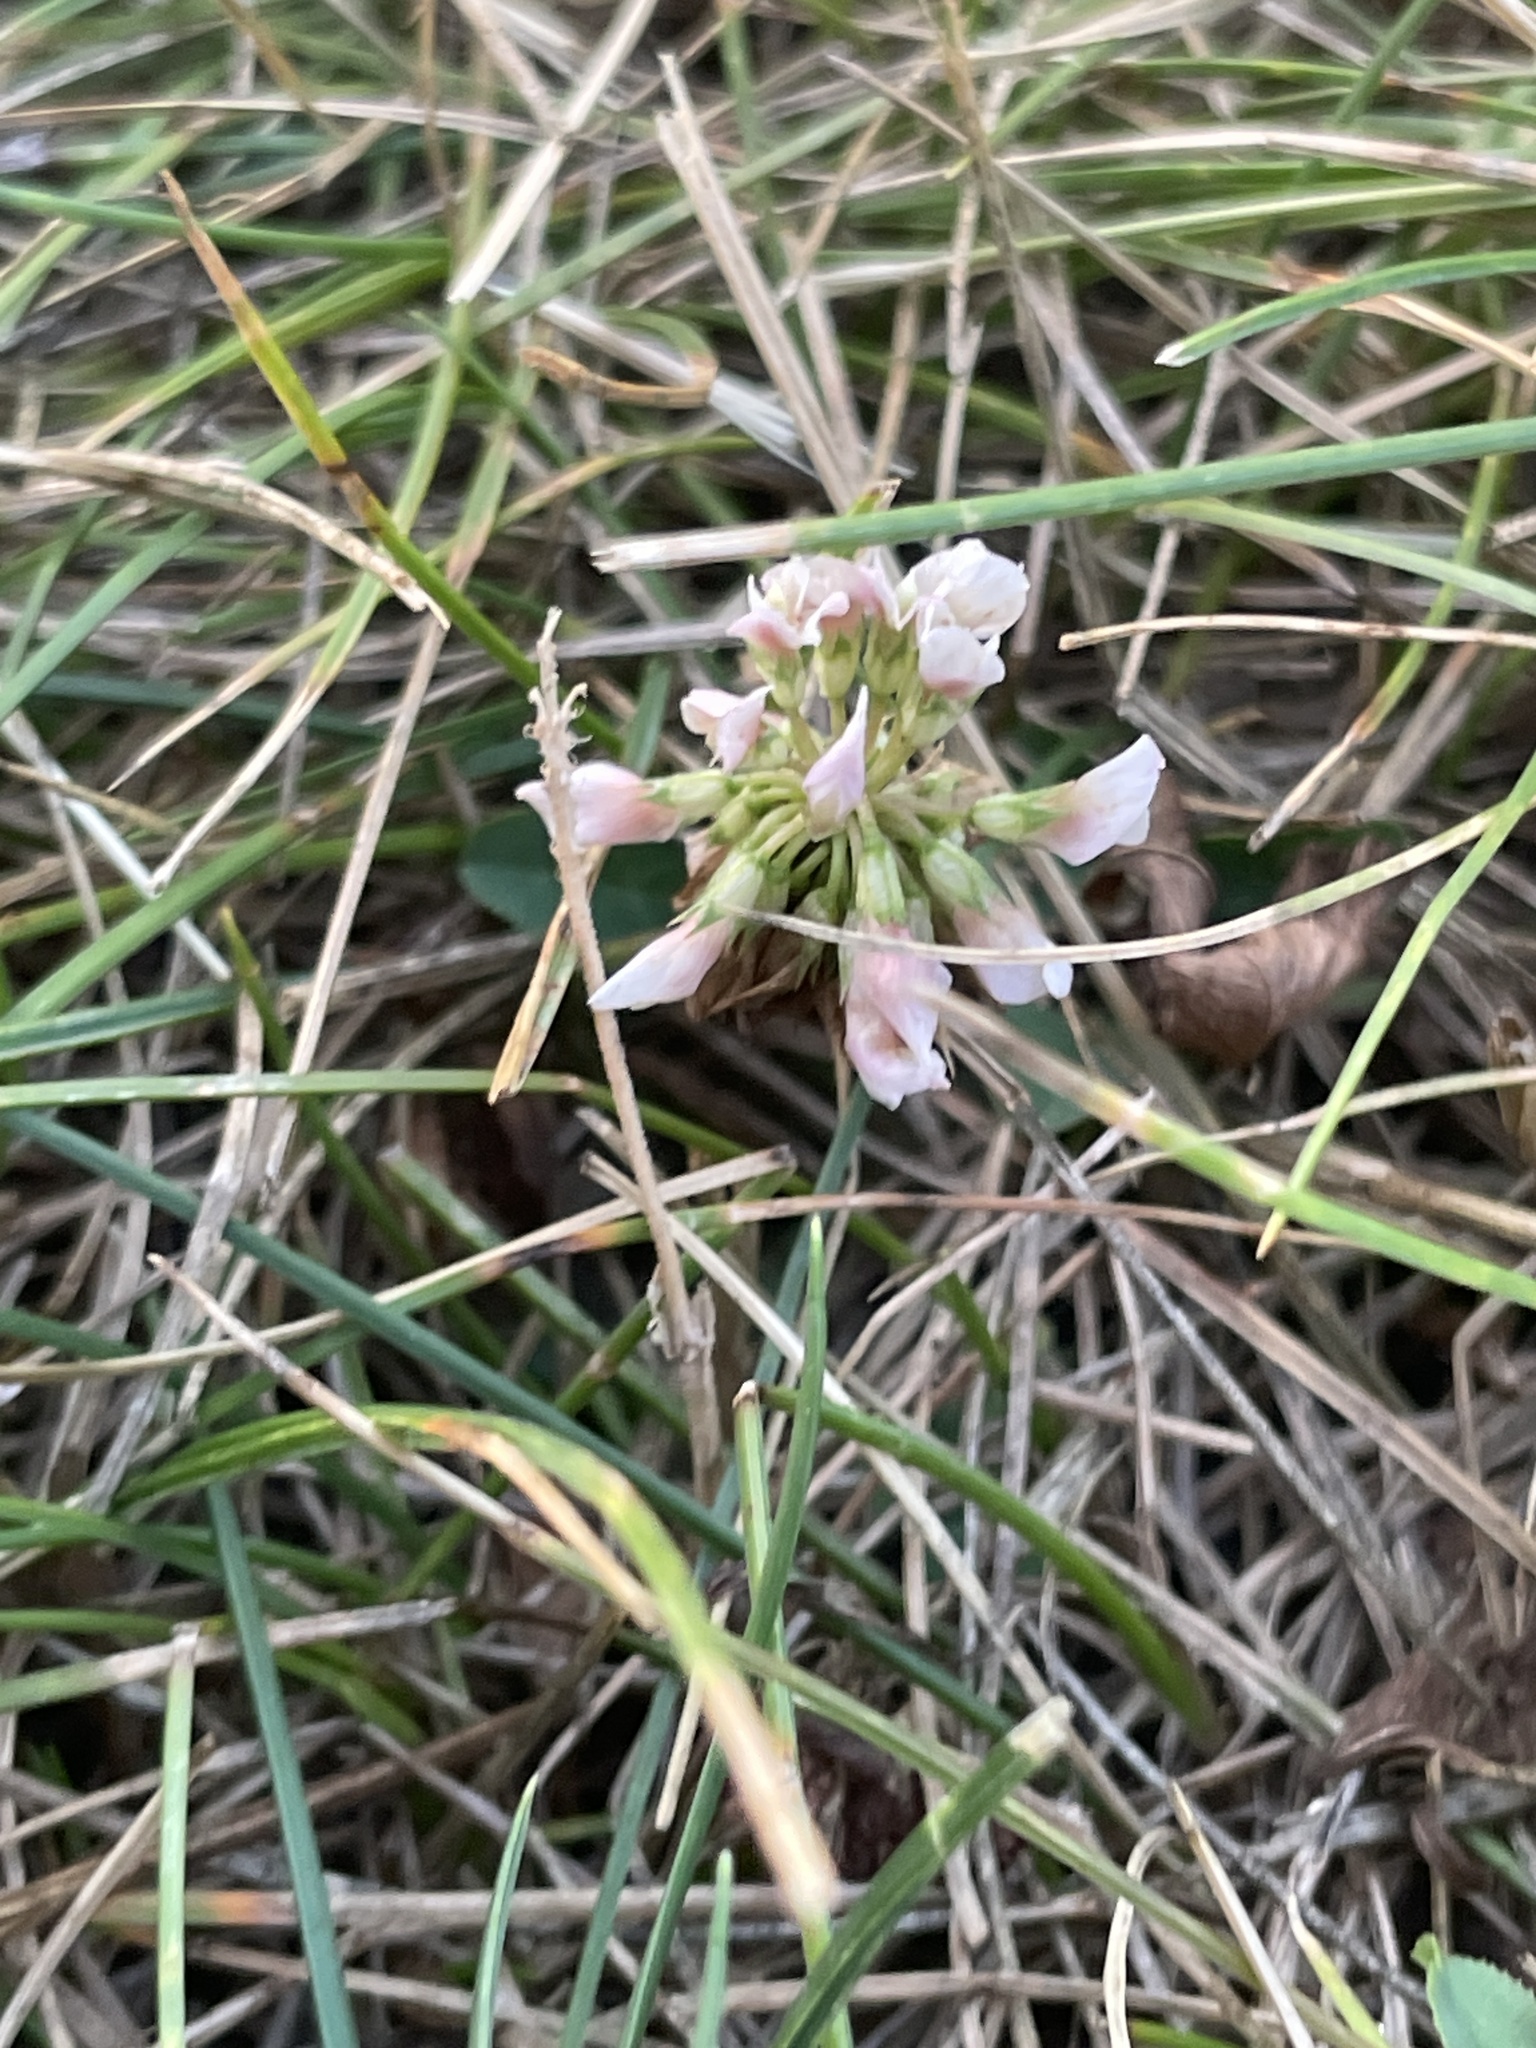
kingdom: Plantae
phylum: Tracheophyta
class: Magnoliopsida
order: Fabales
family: Fabaceae
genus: Trifolium
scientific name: Trifolium repens
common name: White clover
